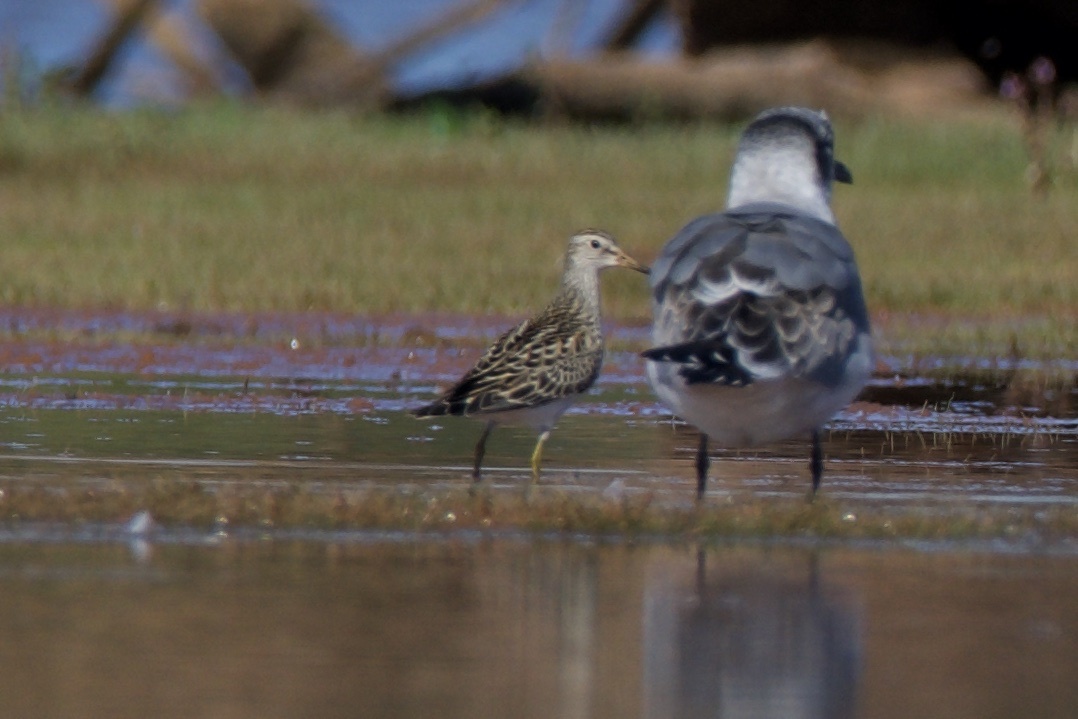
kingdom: Animalia
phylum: Chordata
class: Aves
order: Charadriiformes
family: Scolopacidae
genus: Calidris
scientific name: Calidris melanotos
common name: Pectoral sandpiper
